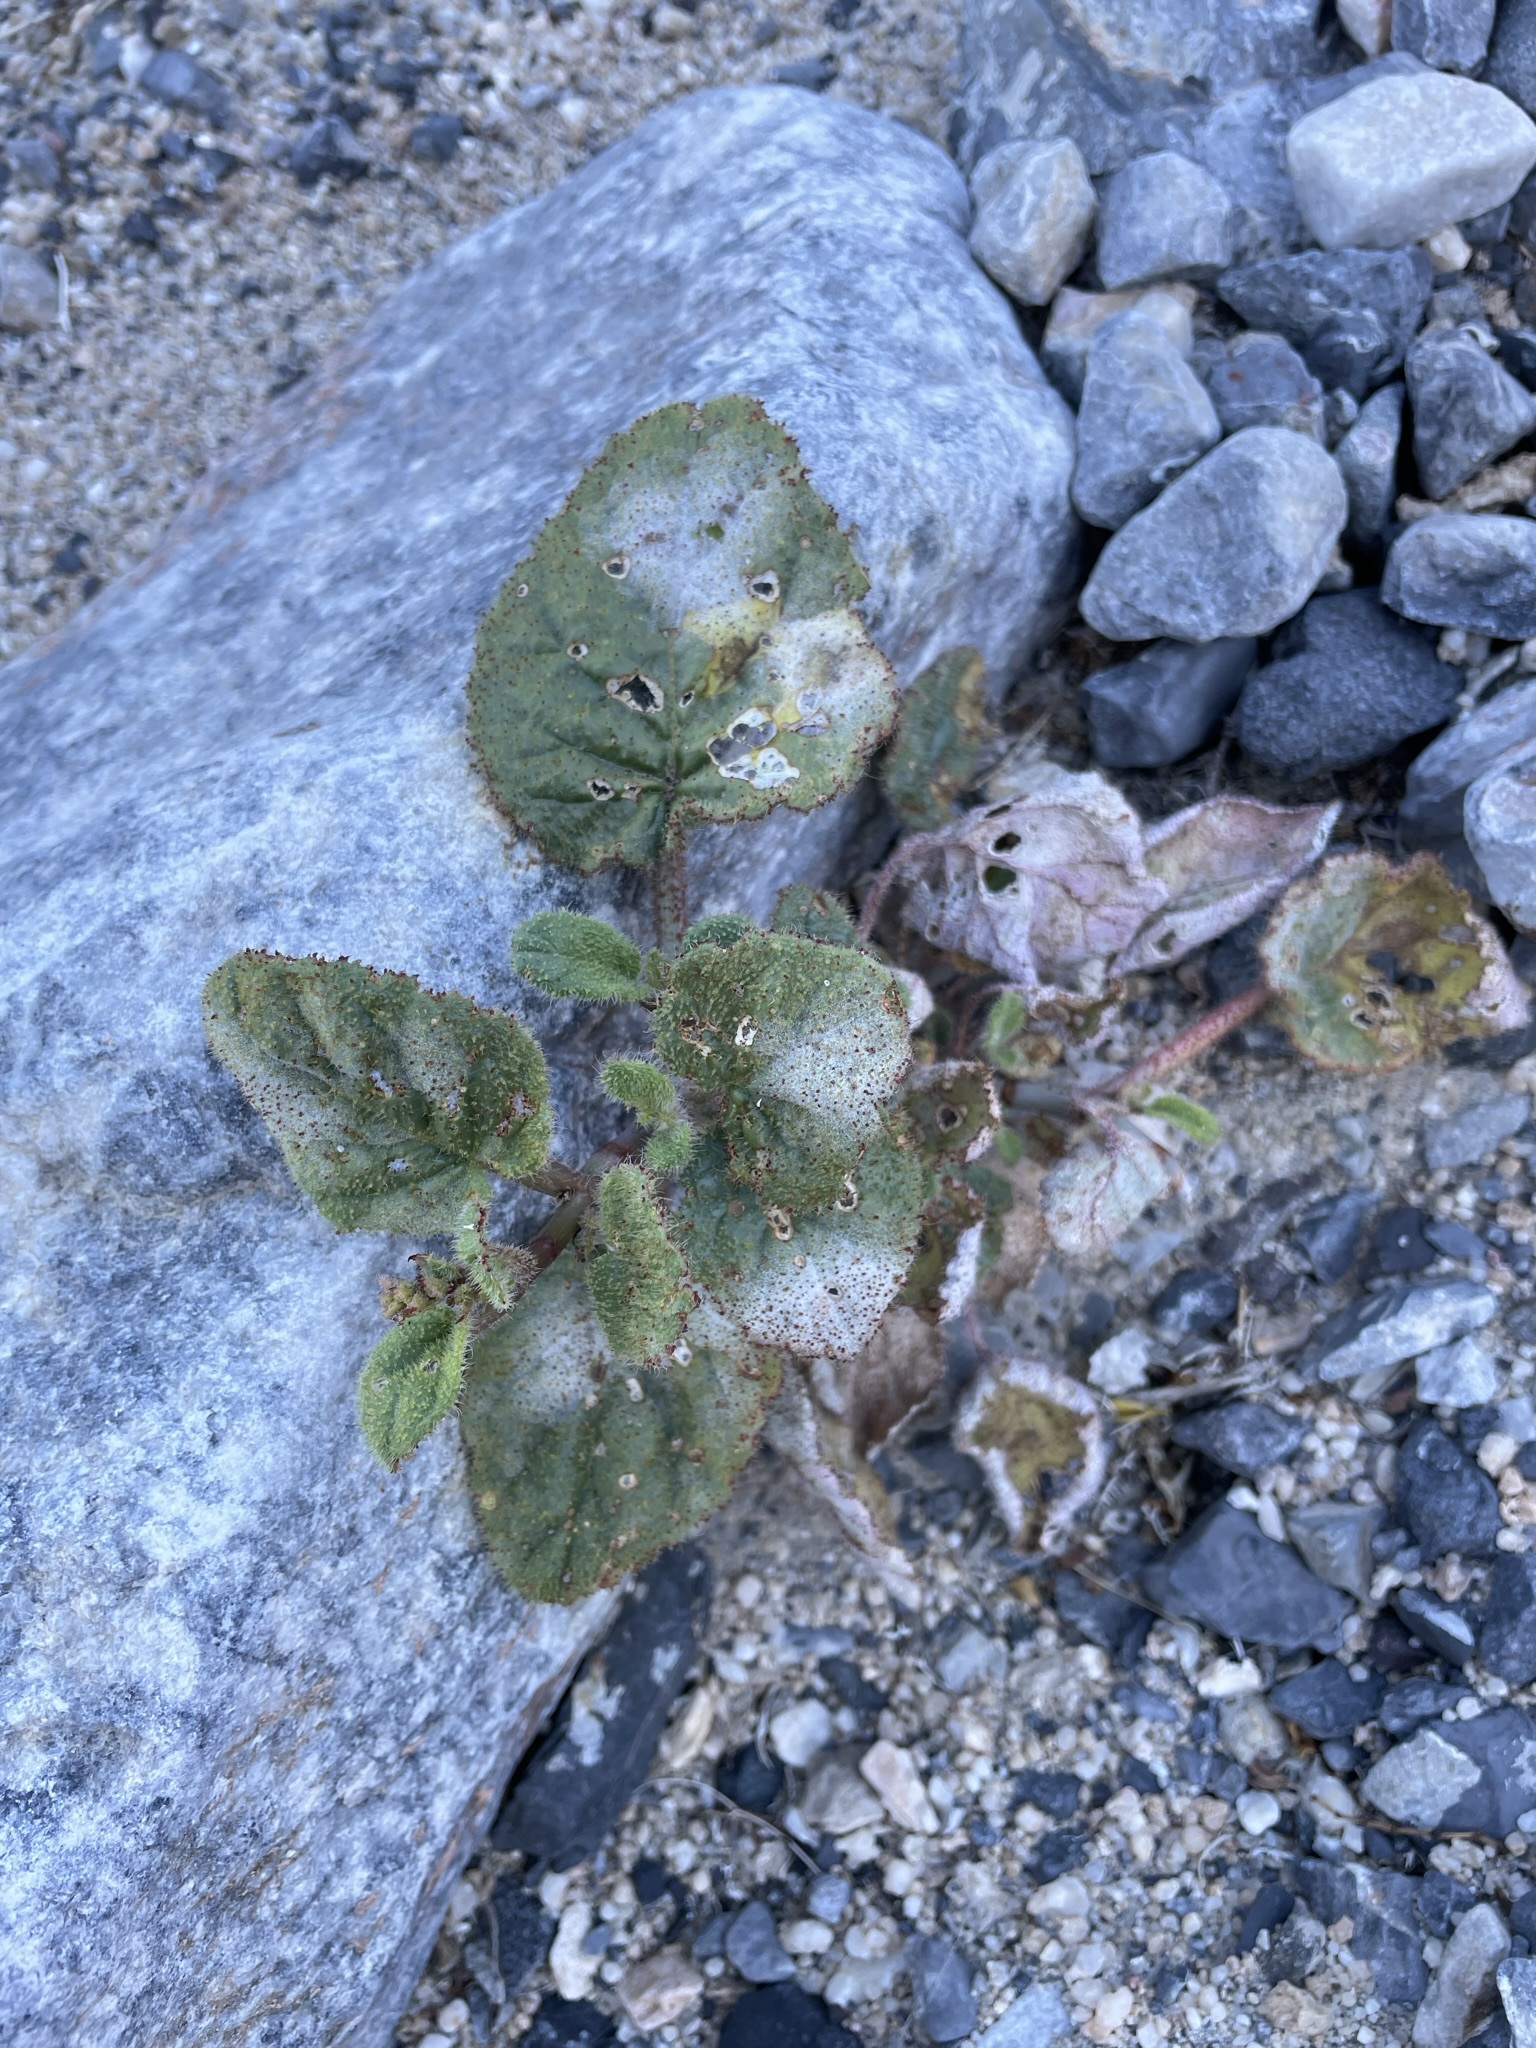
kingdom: Plantae
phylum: Tracheophyta
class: Magnoliopsida
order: Caryophyllales
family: Nyctaginaceae
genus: Anulocaulis
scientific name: Anulocaulis annulatus
